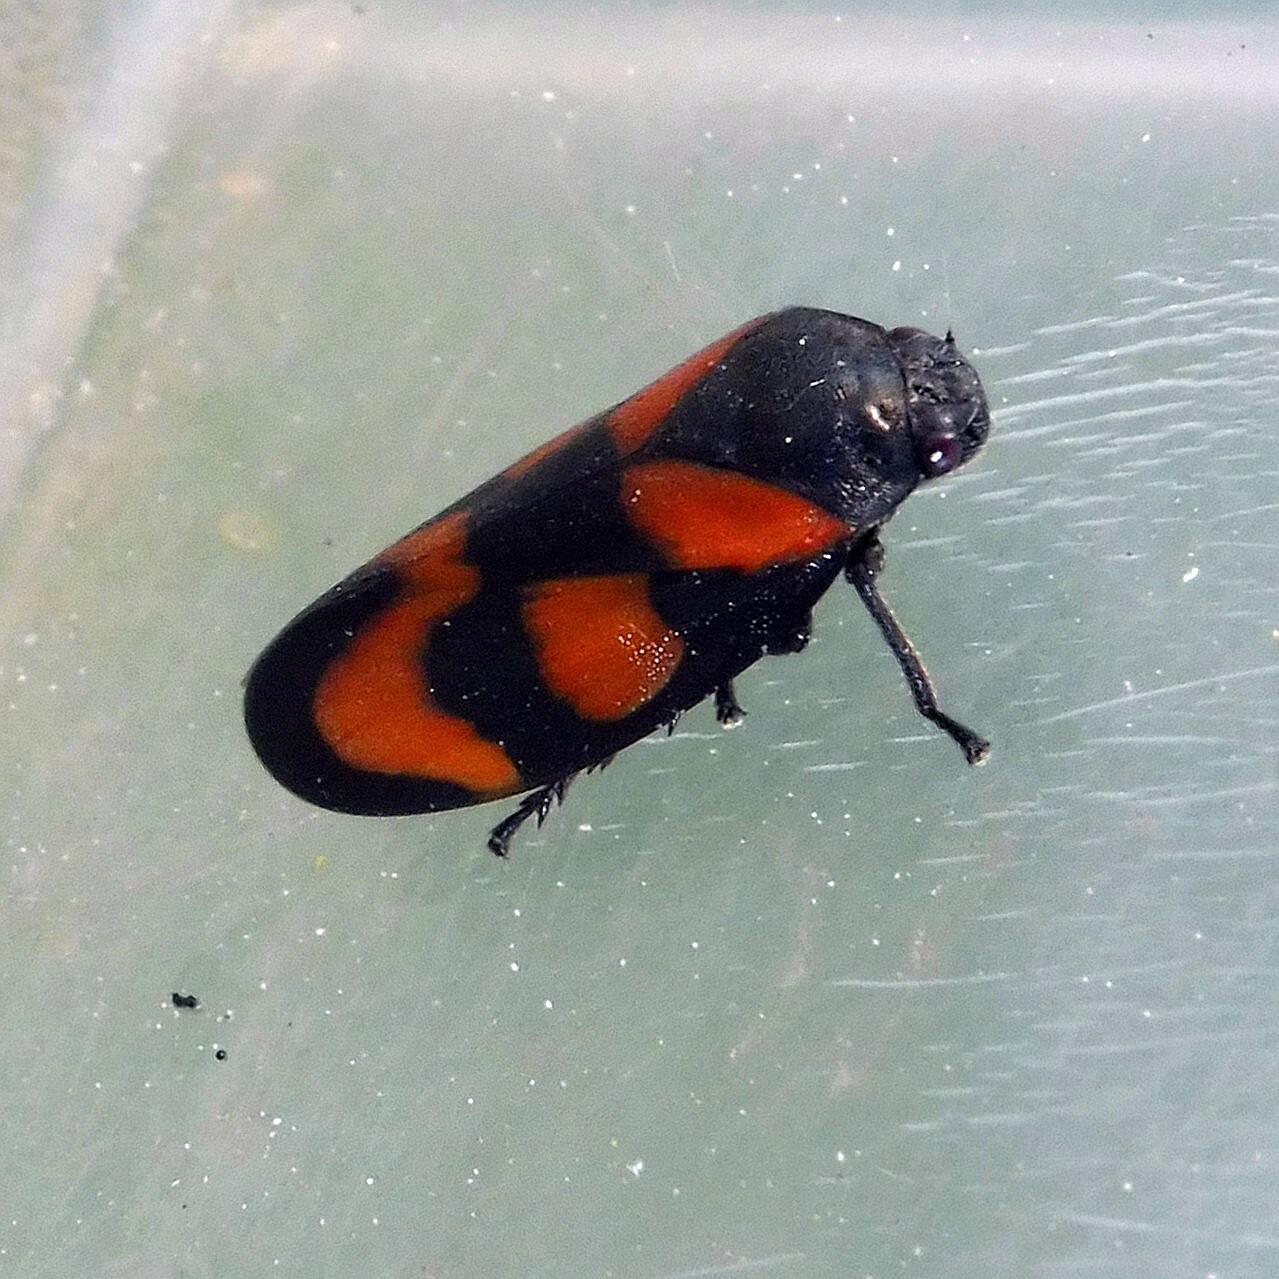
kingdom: Animalia
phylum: Arthropoda
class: Insecta
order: Hemiptera
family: Cercopidae
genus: Cercopis
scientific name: Cercopis vulnerata
